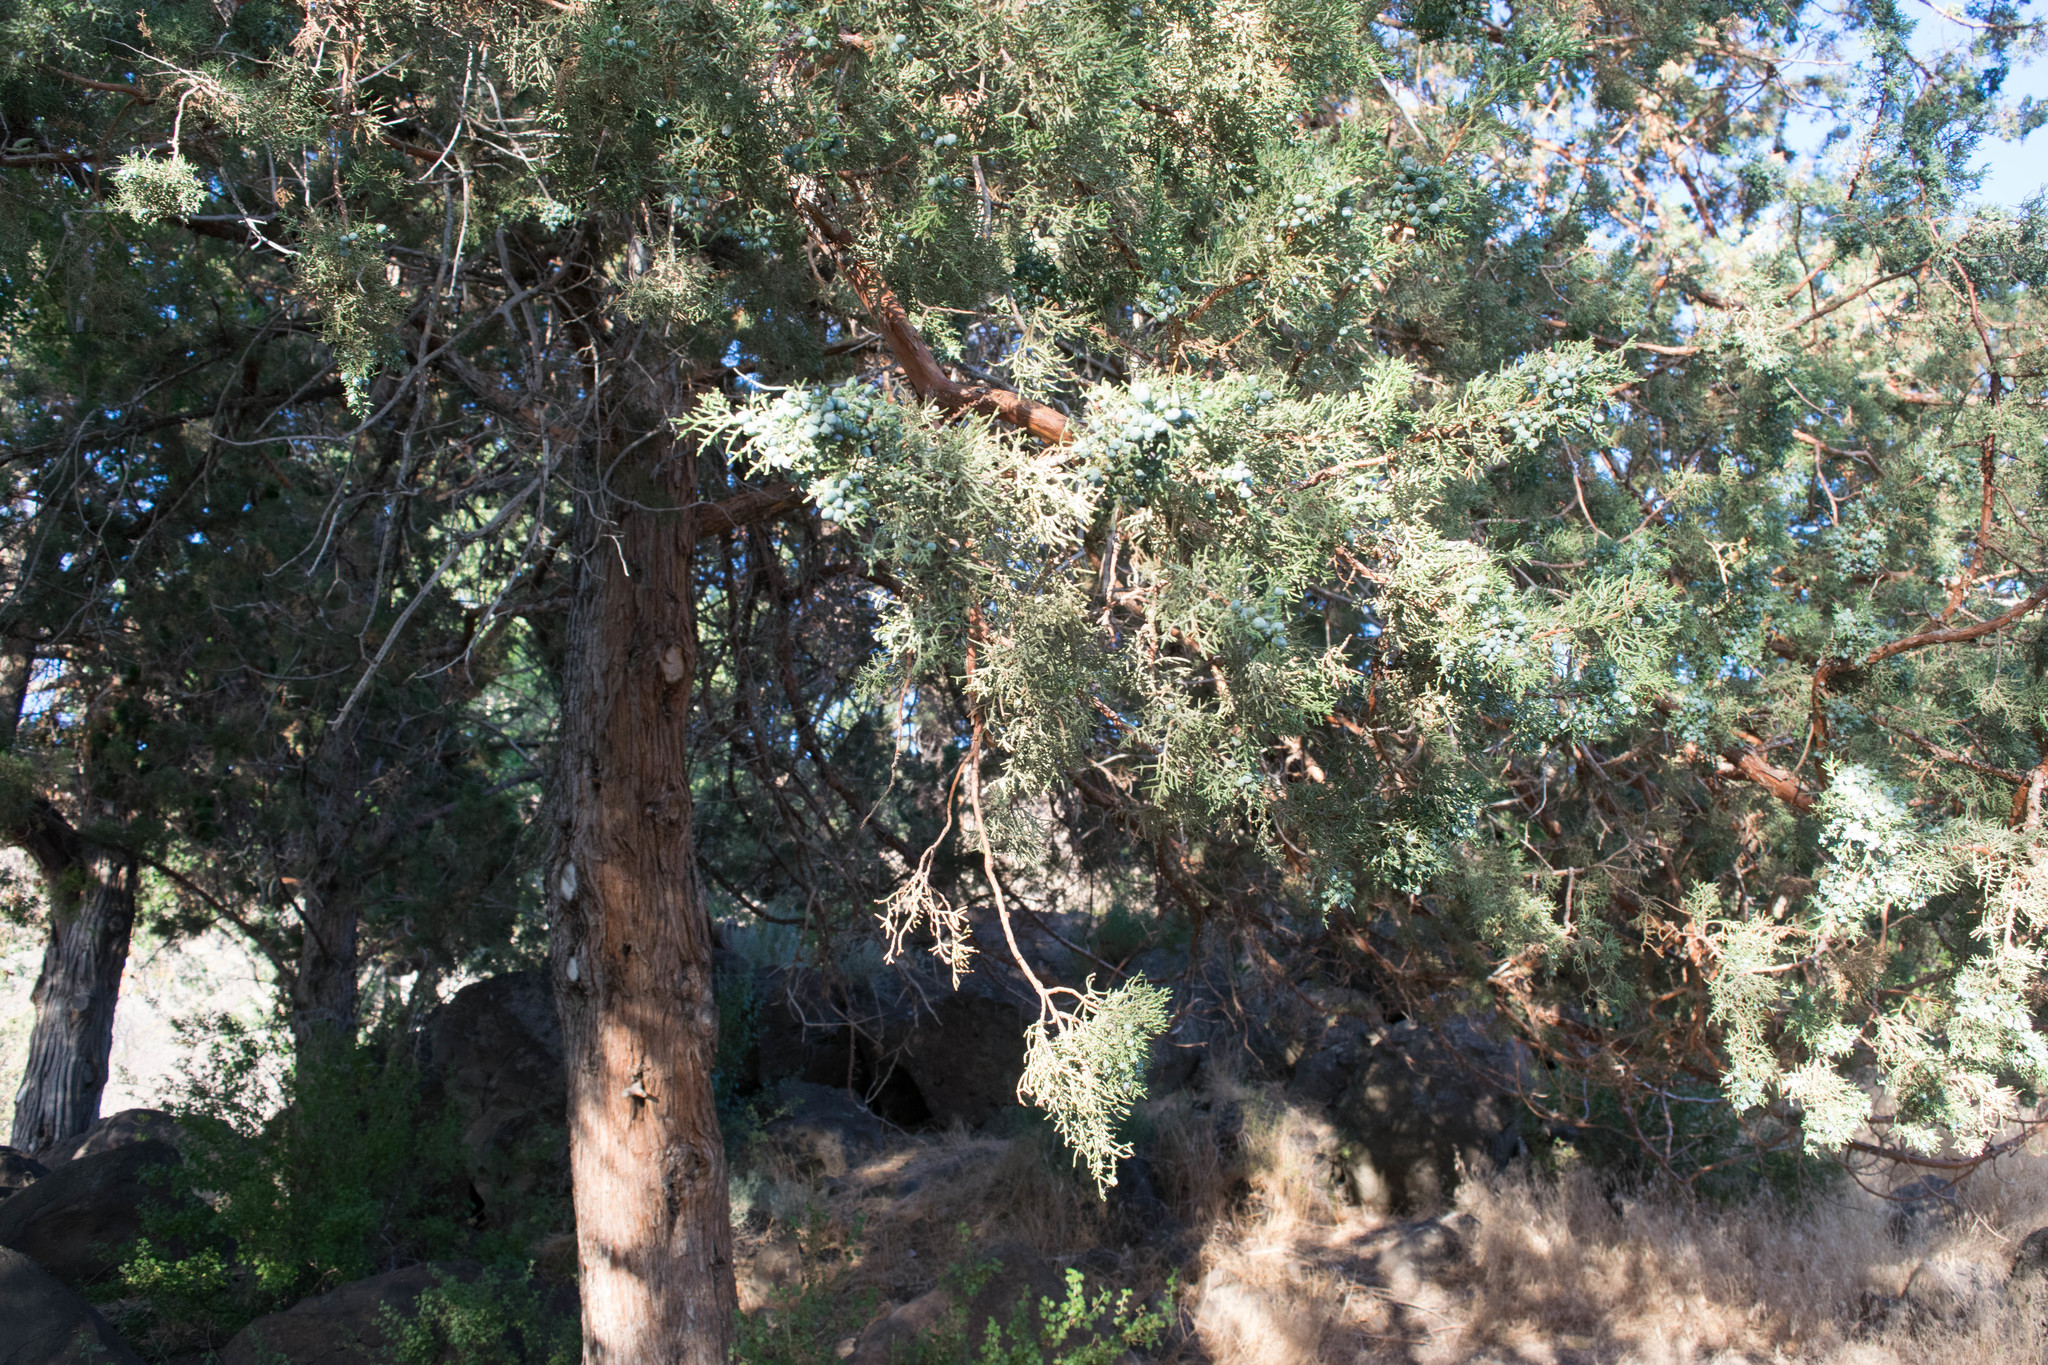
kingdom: Plantae
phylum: Tracheophyta
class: Pinopsida
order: Pinales
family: Cupressaceae
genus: Juniperus
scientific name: Juniperus occidentalis
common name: Western juniper
